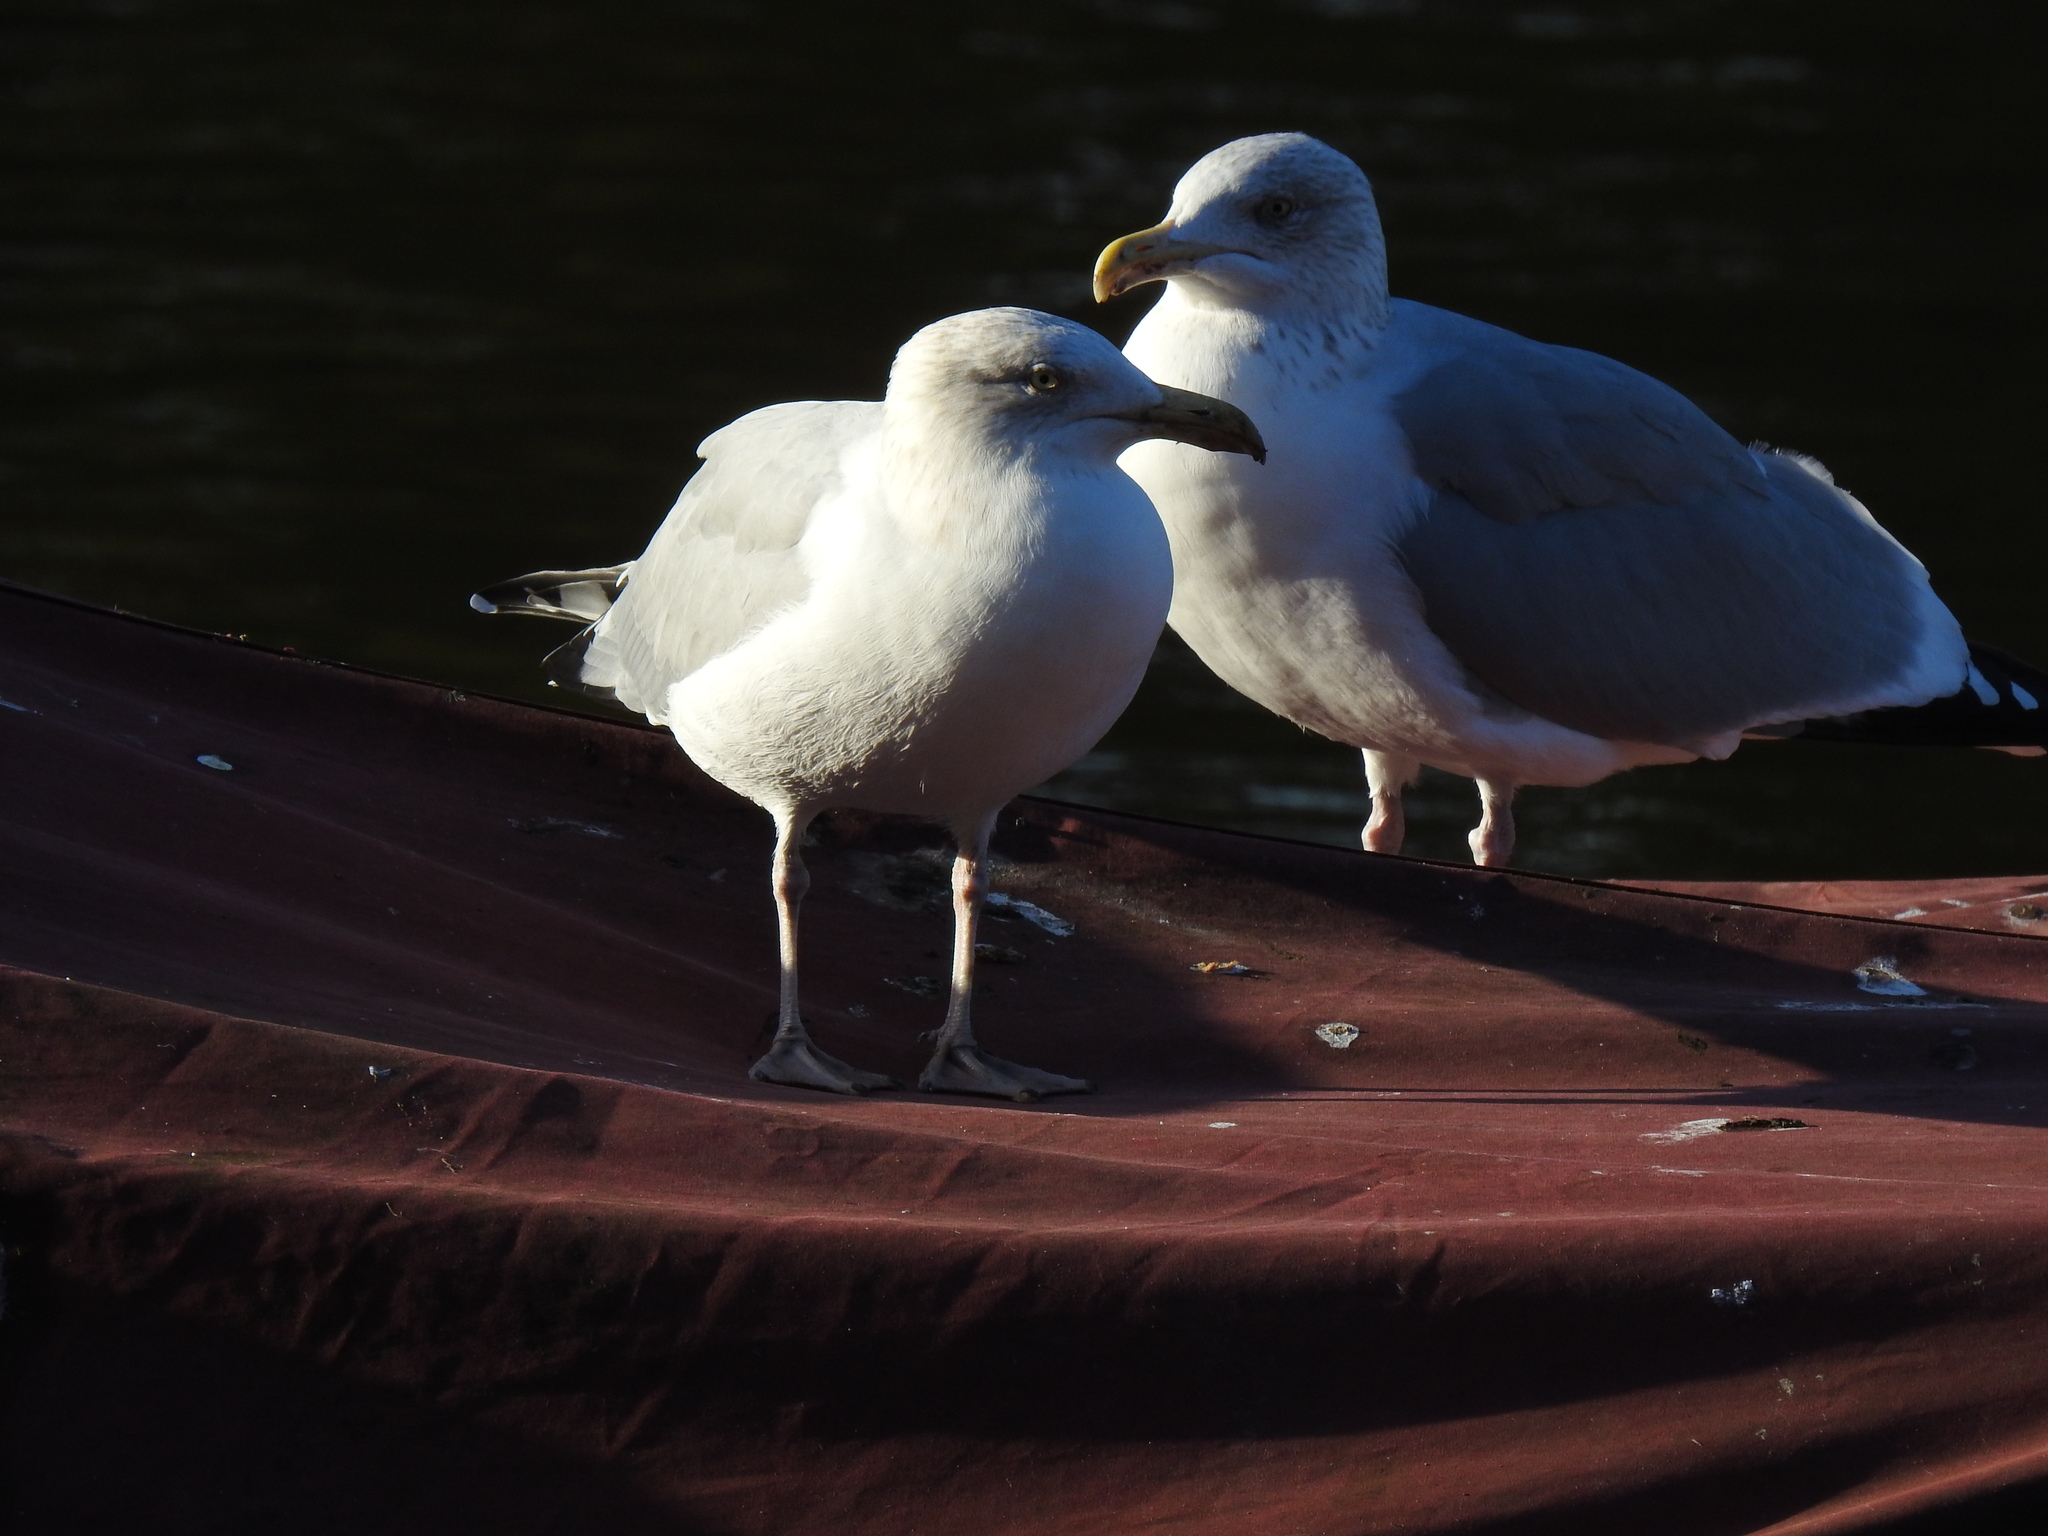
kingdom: Animalia
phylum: Chordata
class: Aves
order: Charadriiformes
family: Laridae
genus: Larus
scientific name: Larus argentatus
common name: Herring gull
